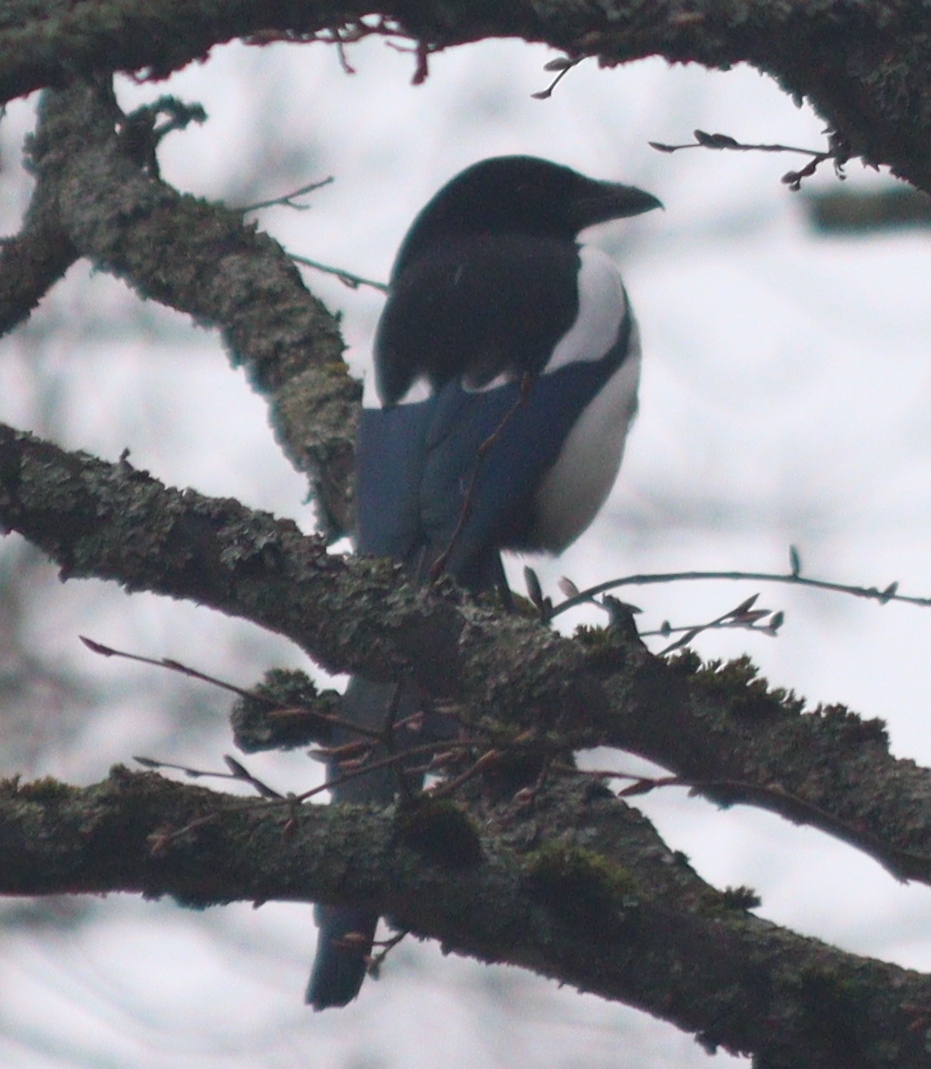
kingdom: Animalia
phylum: Chordata
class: Aves
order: Passeriformes
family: Corvidae
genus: Pica
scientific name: Pica pica
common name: Eurasian magpie
